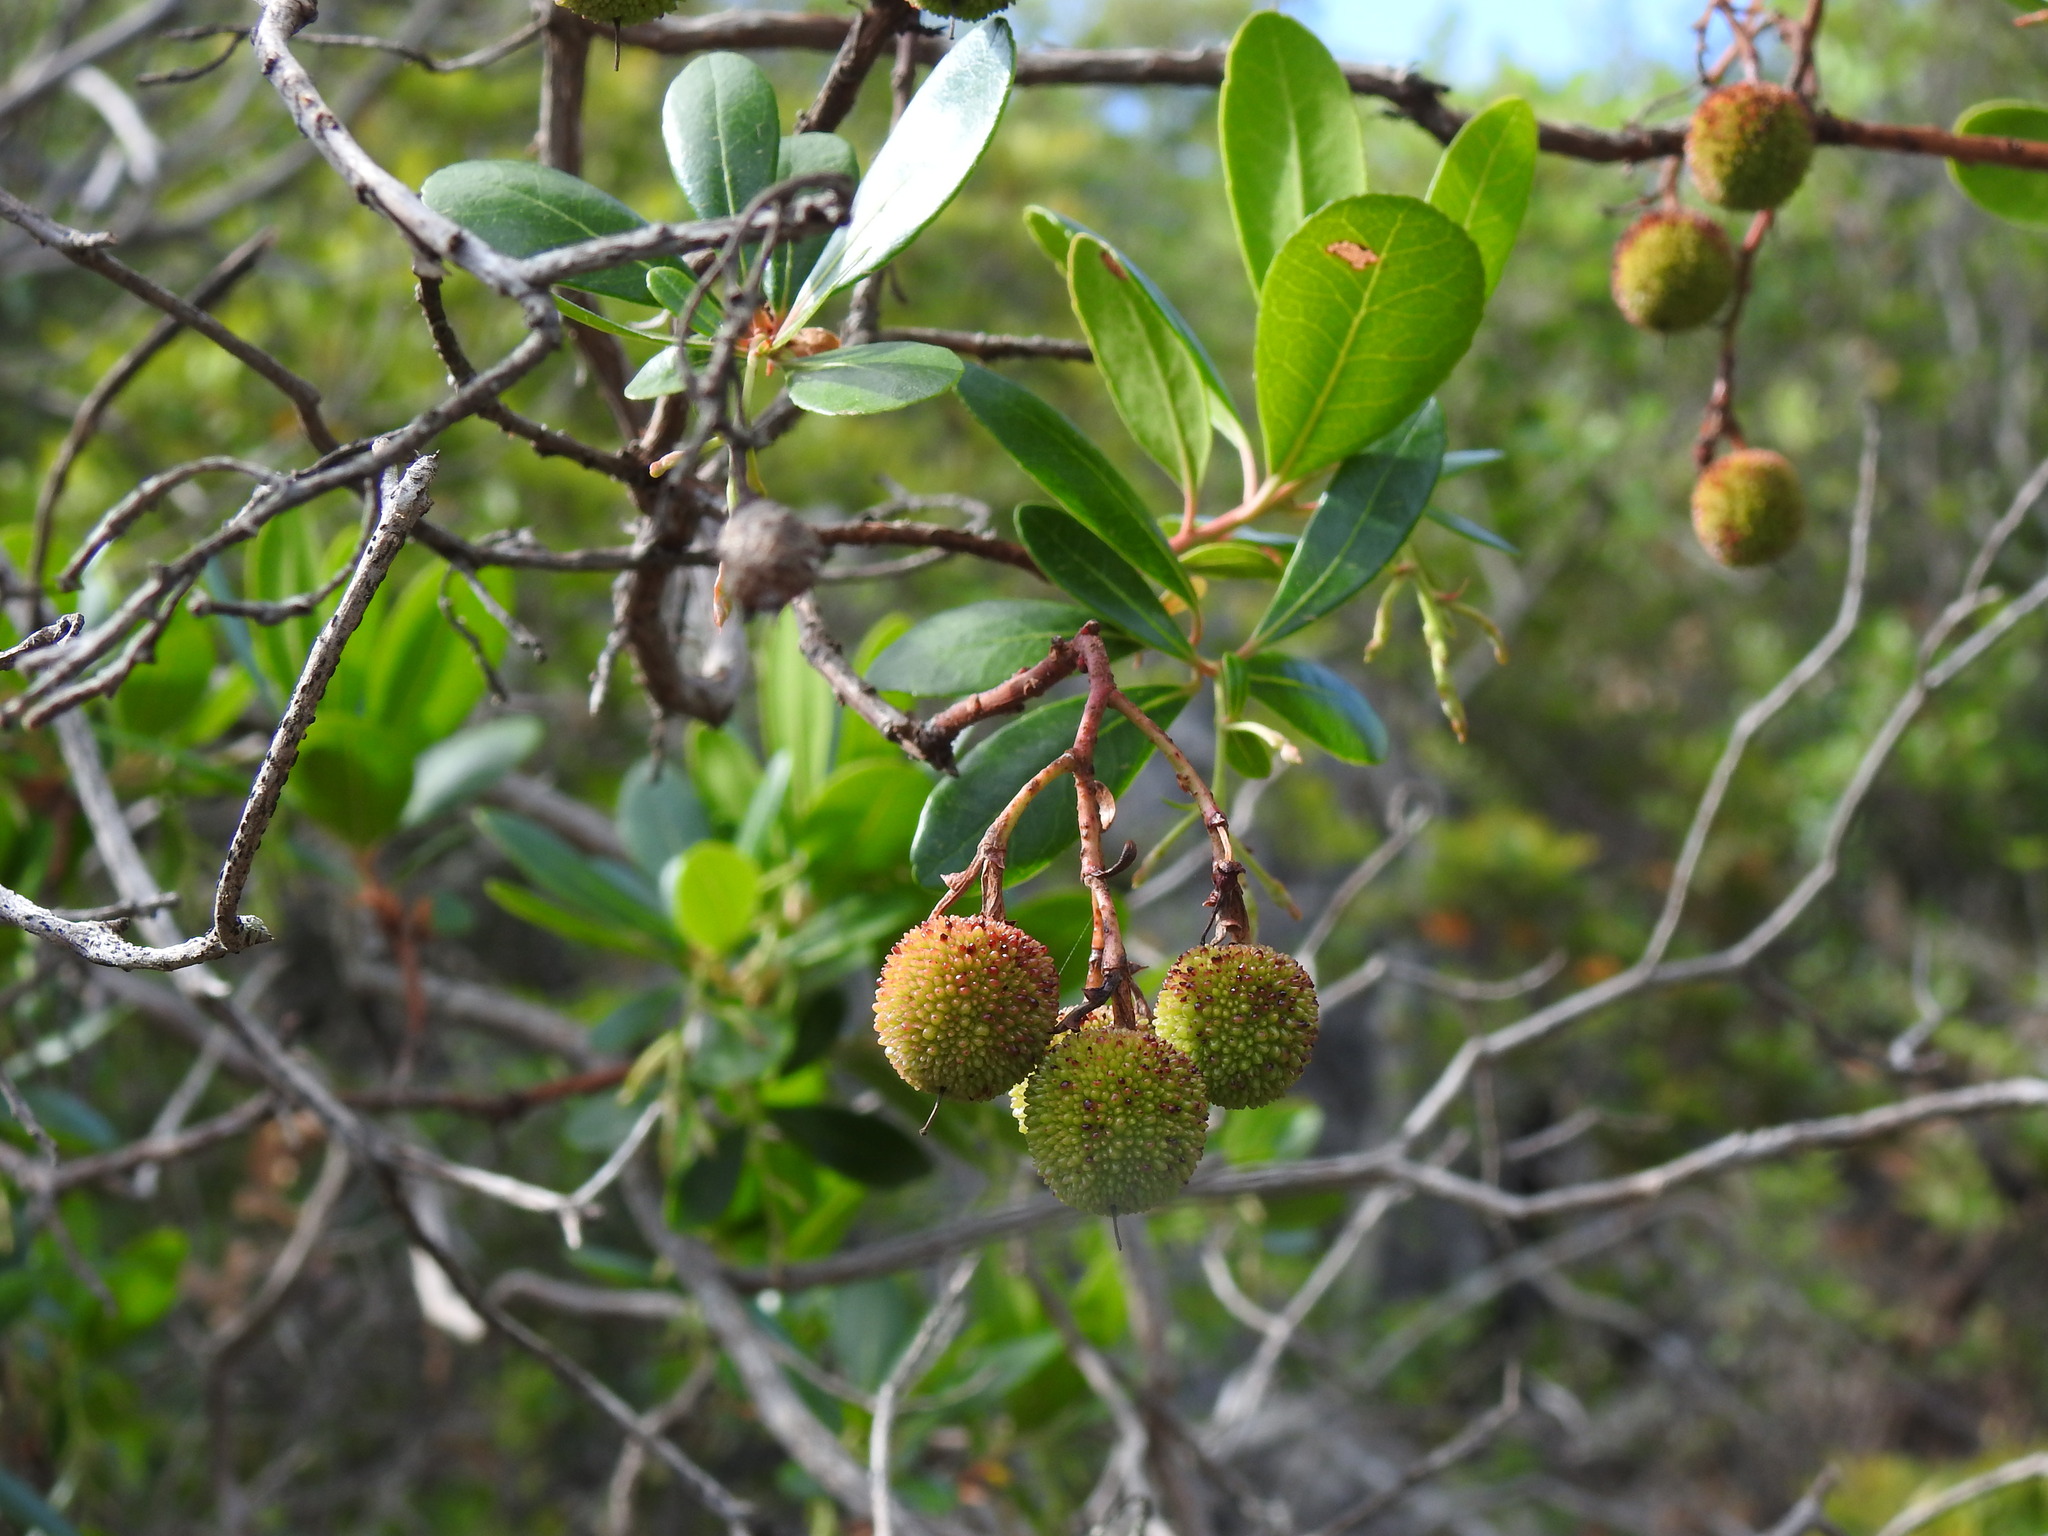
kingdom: Plantae
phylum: Tracheophyta
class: Magnoliopsida
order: Ericales
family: Ericaceae
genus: Arbutus
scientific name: Arbutus unedo
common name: Strawberry-tree
